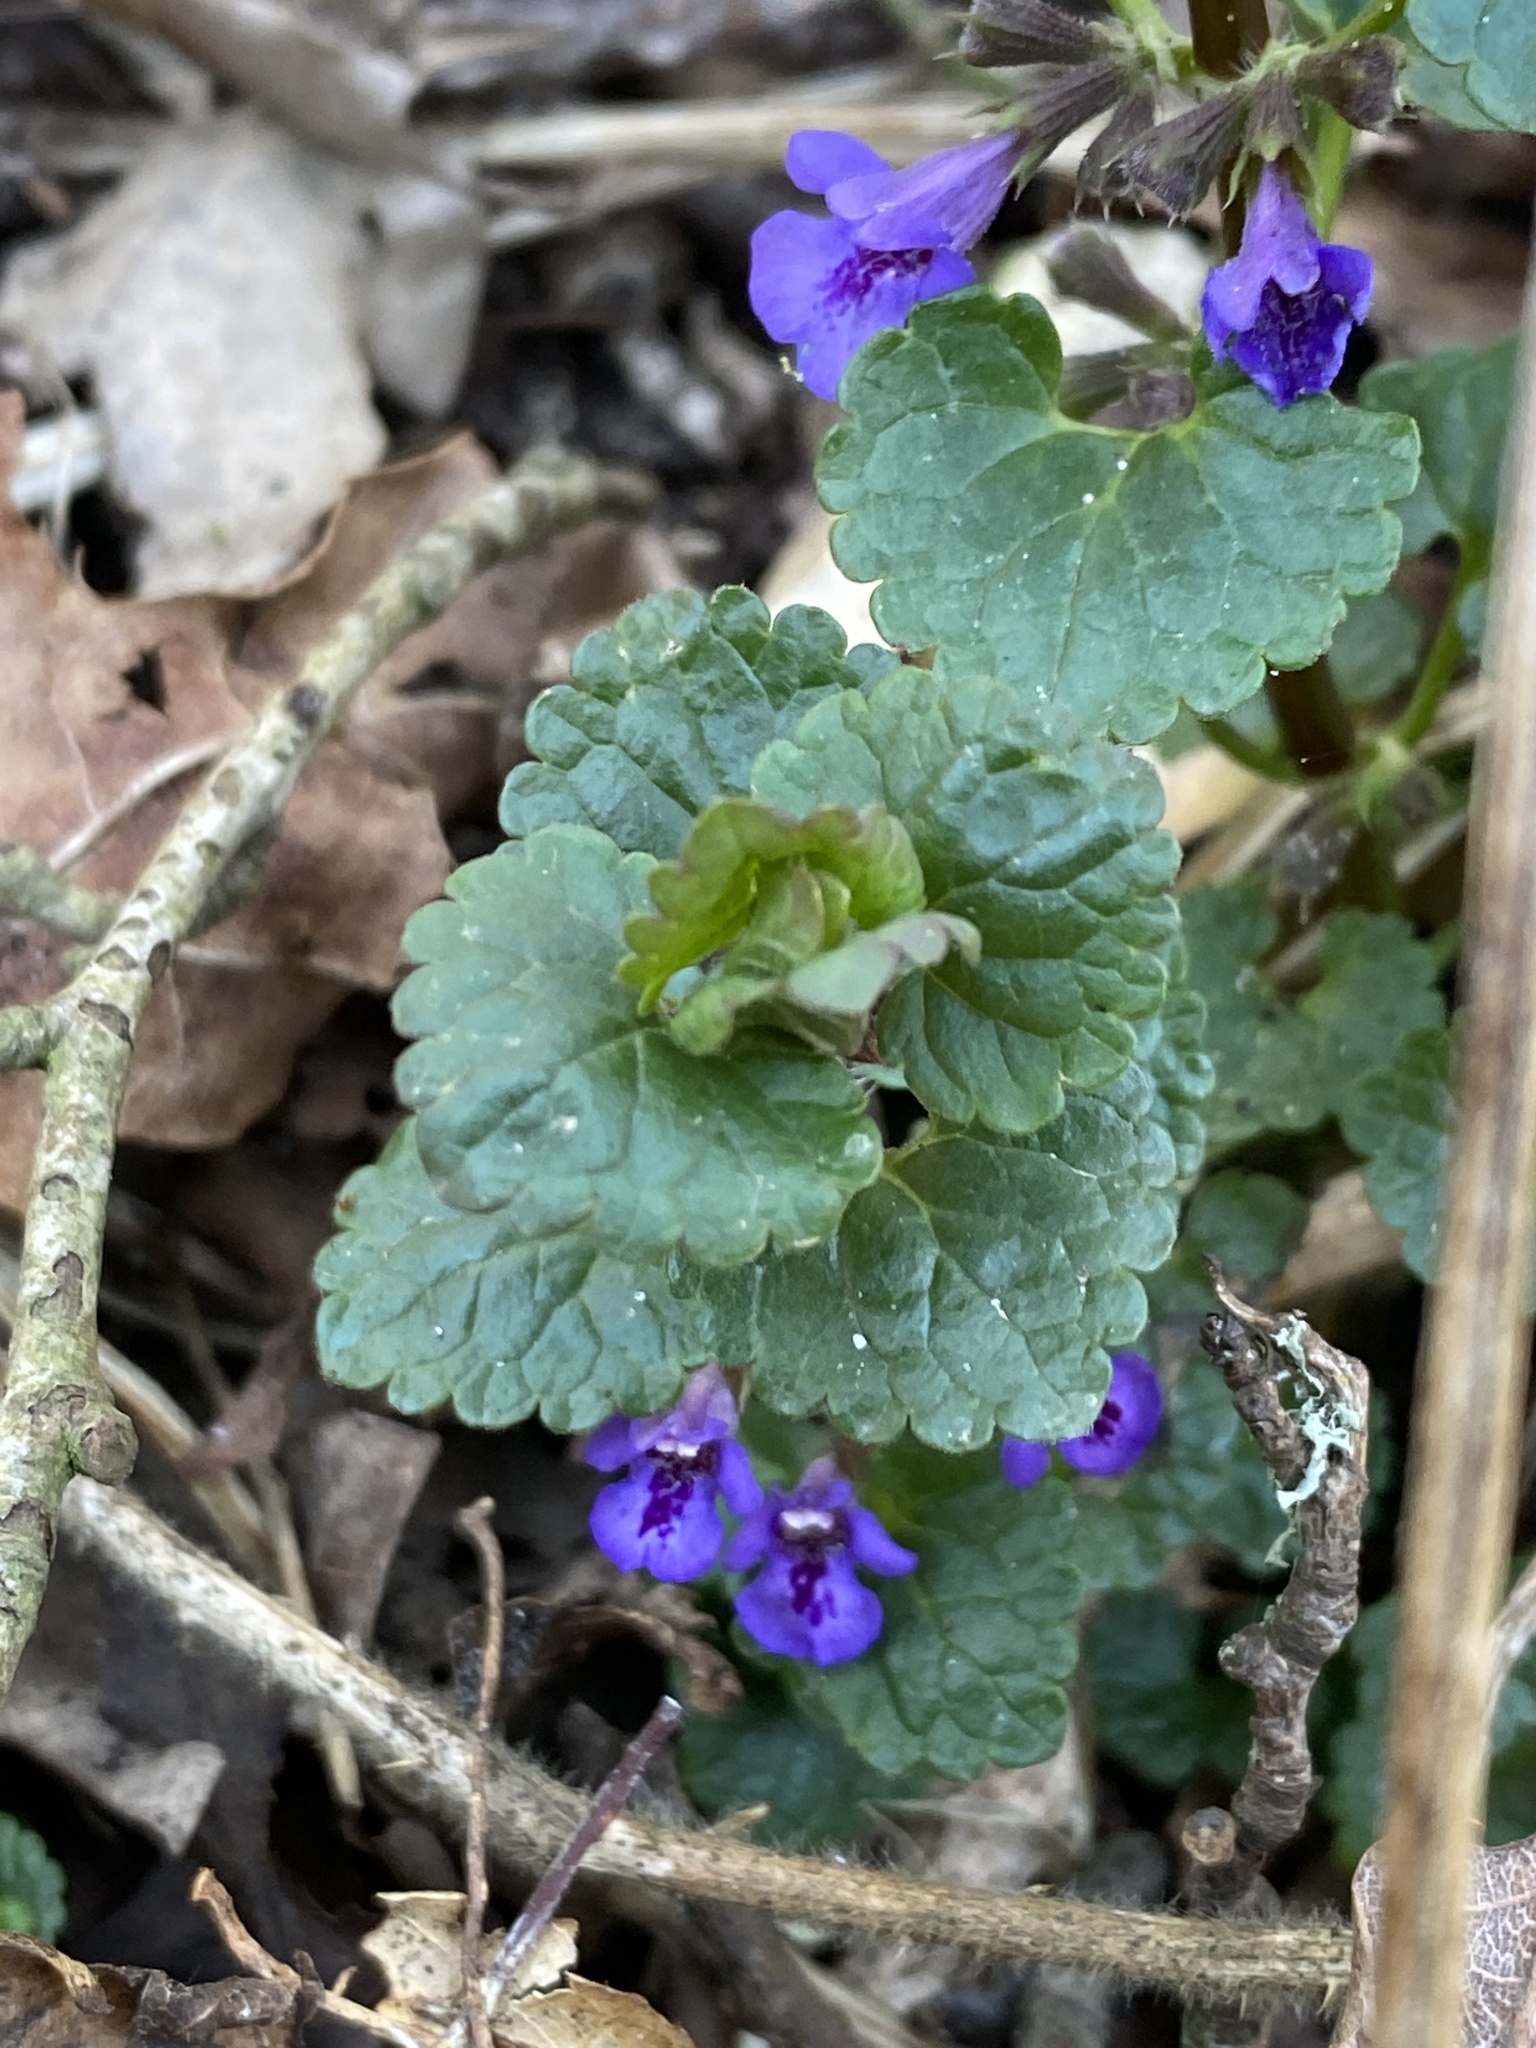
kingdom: Plantae
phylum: Tracheophyta
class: Magnoliopsida
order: Lamiales
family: Lamiaceae
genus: Glechoma
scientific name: Glechoma hederacea
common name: Ground ivy
